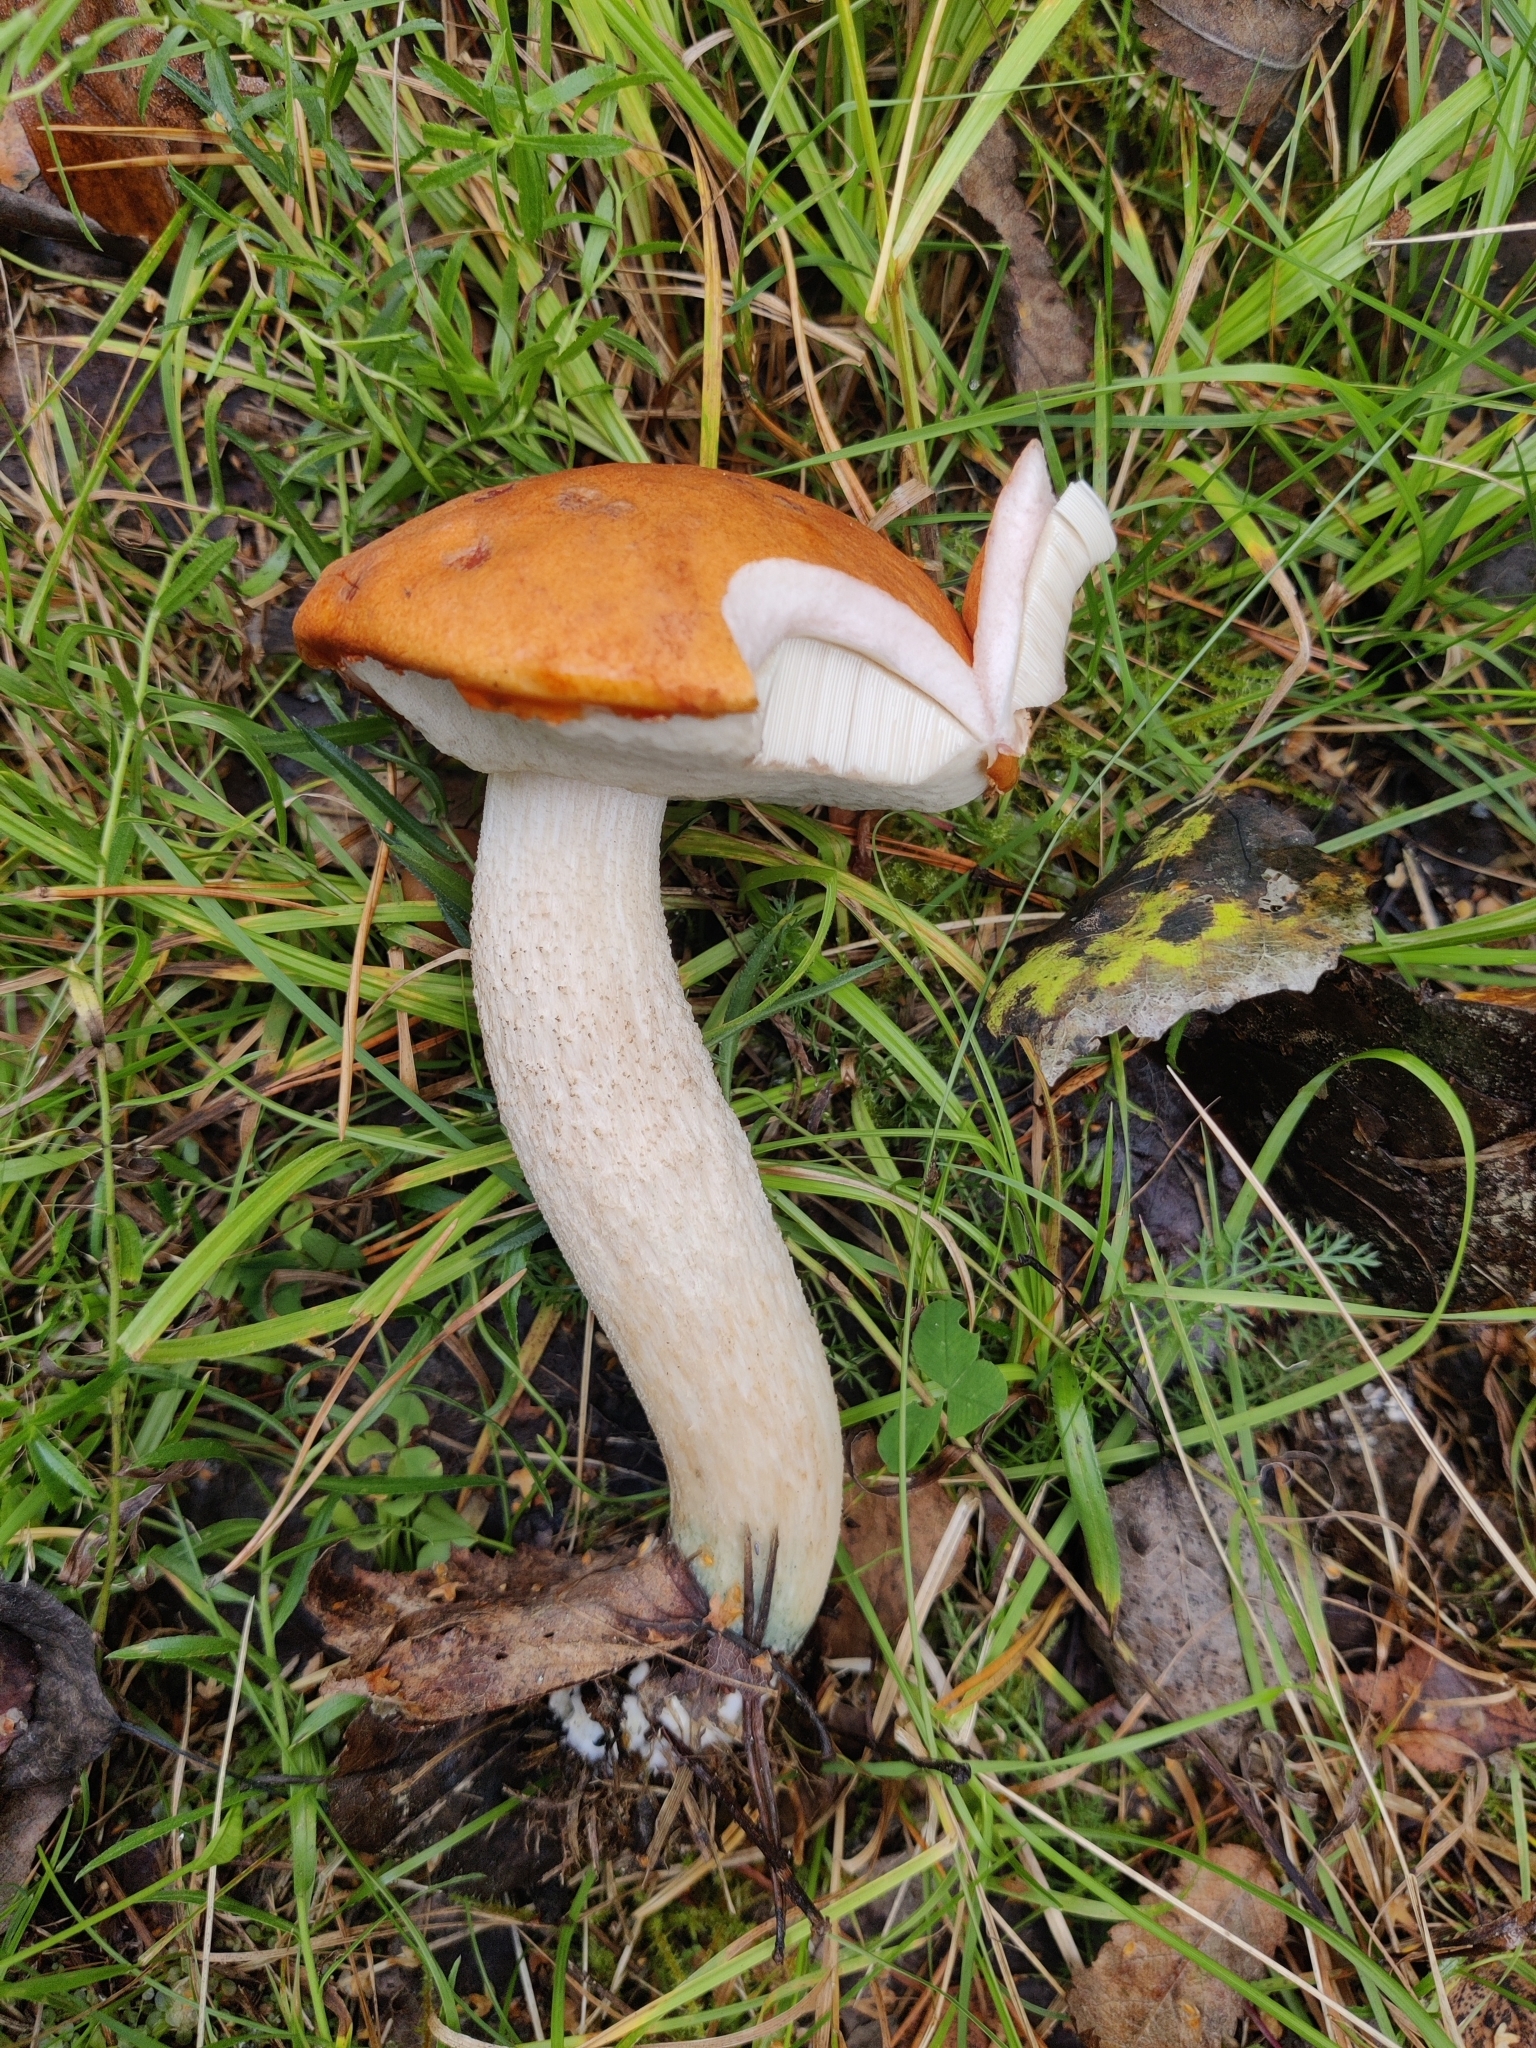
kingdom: Fungi
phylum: Basidiomycota
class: Agaricomycetes
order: Boletales
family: Boletaceae
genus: Leccinum
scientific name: Leccinum albostipitatum
